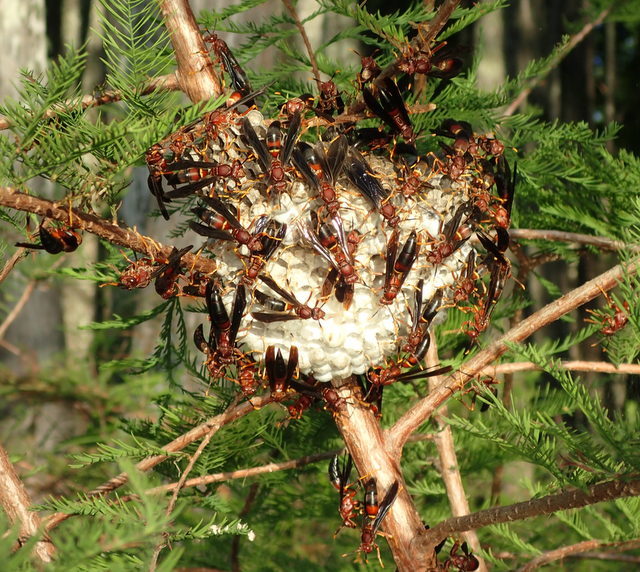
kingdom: Animalia
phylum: Arthropoda
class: Insecta
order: Hymenoptera
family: Eumenidae
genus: Polistes
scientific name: Polistes annularis
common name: Ringed paper wasp
